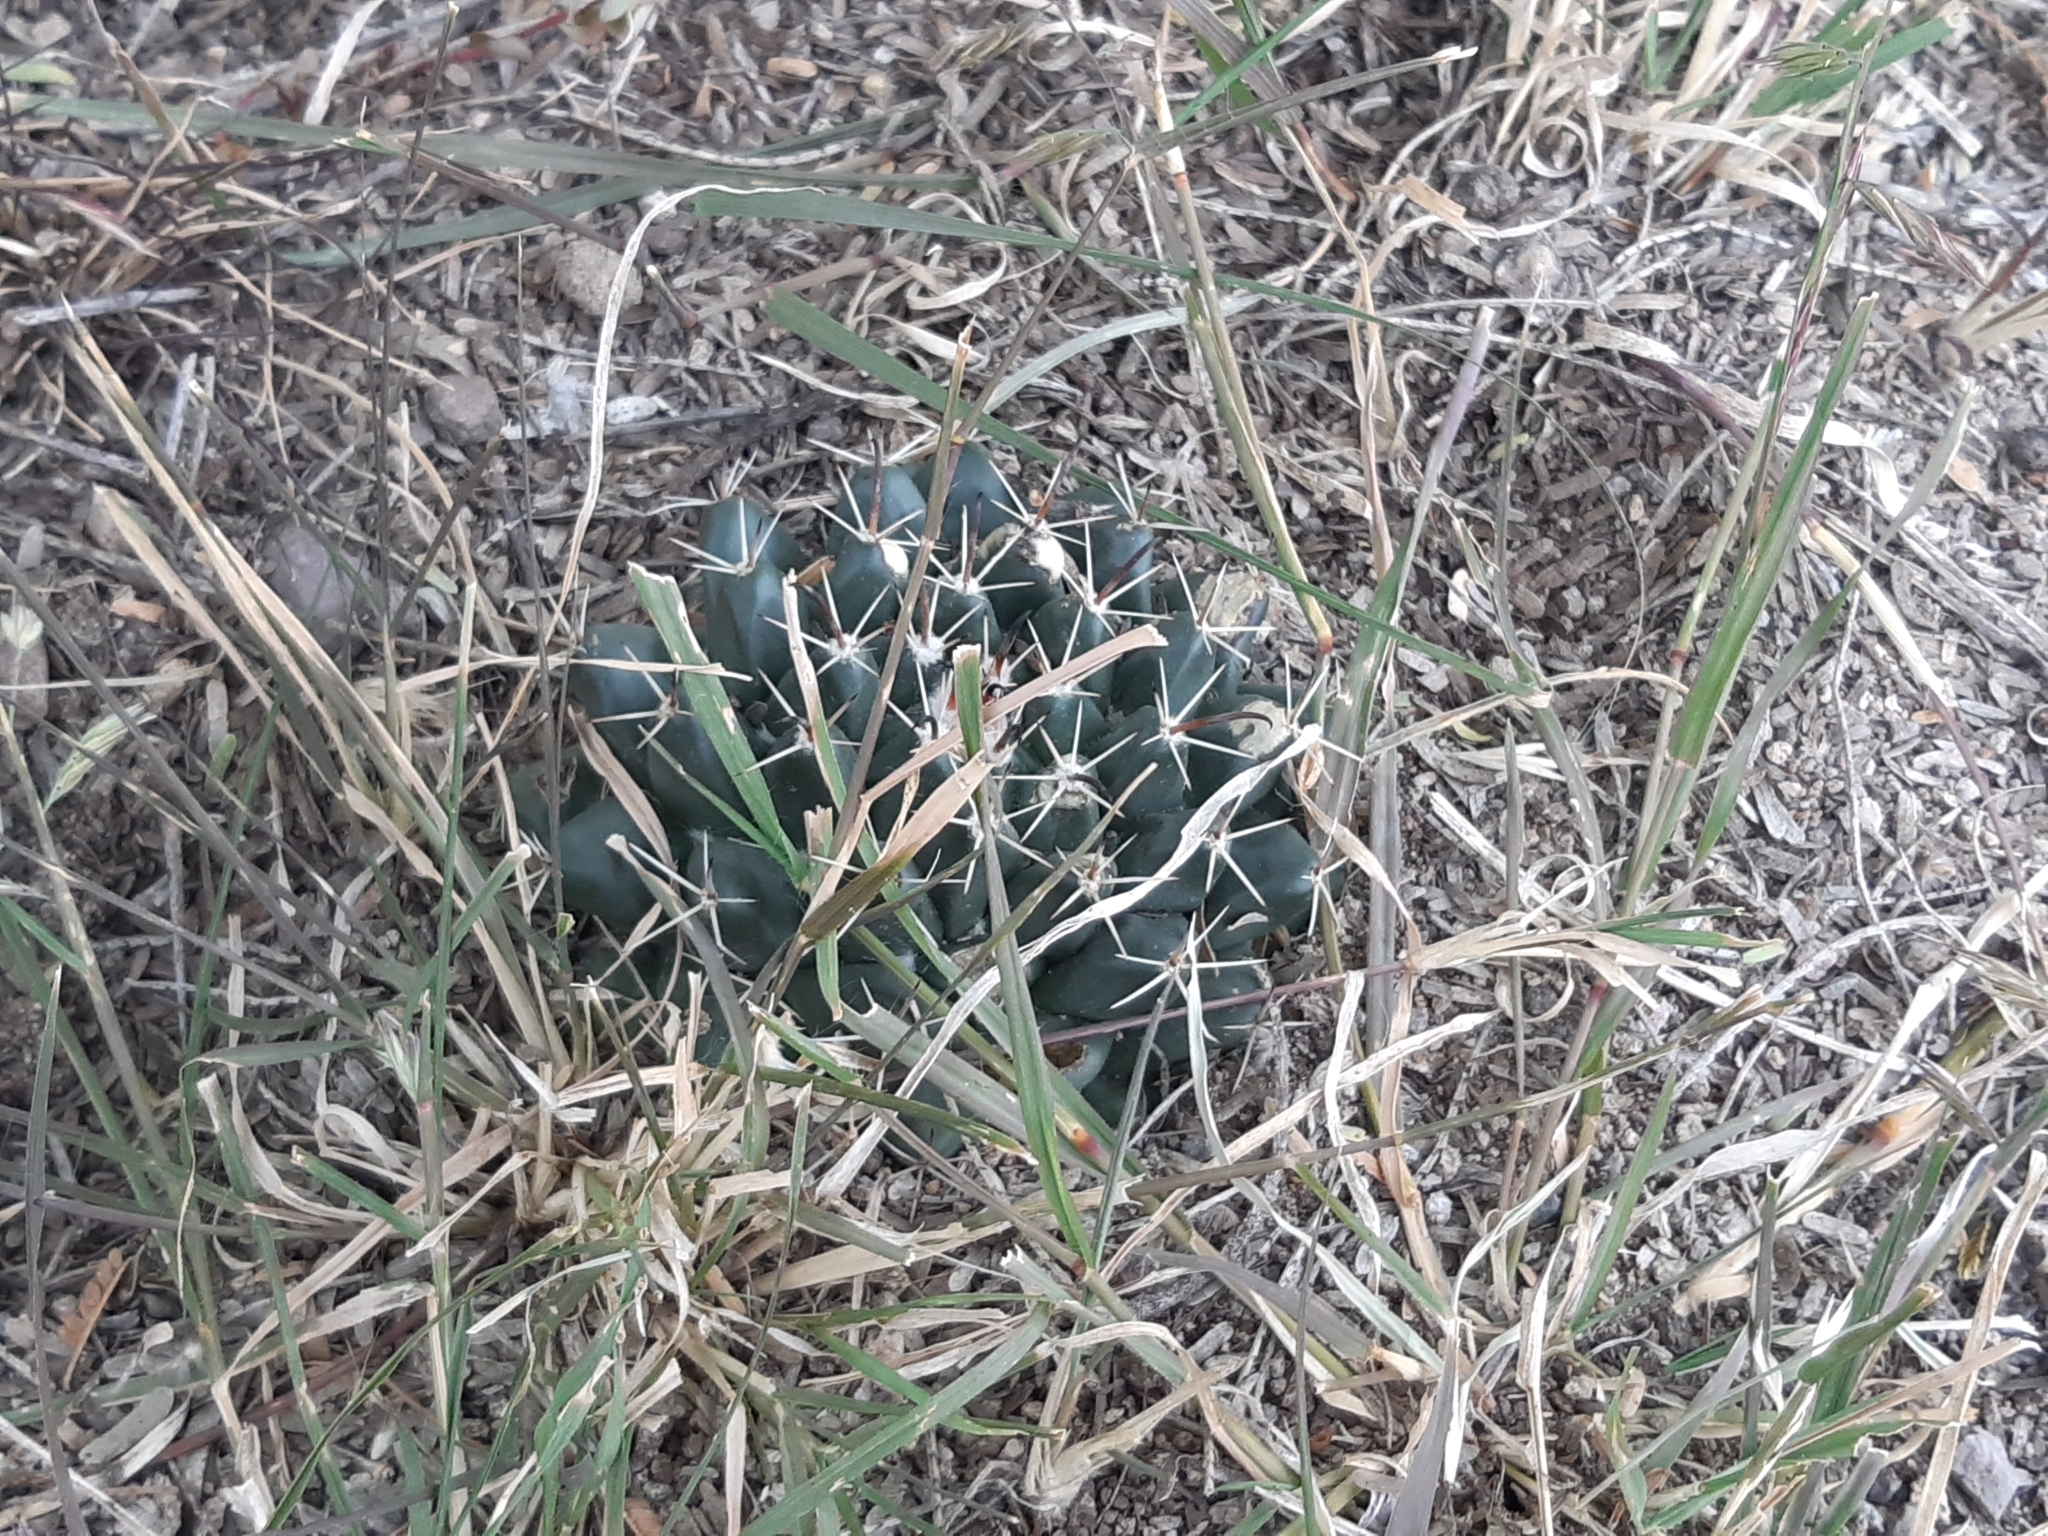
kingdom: Plantae
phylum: Tracheophyta
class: Magnoliopsida
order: Caryophyllales
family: Cactaceae
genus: Mammillaria
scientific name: Mammillaria uncinata
